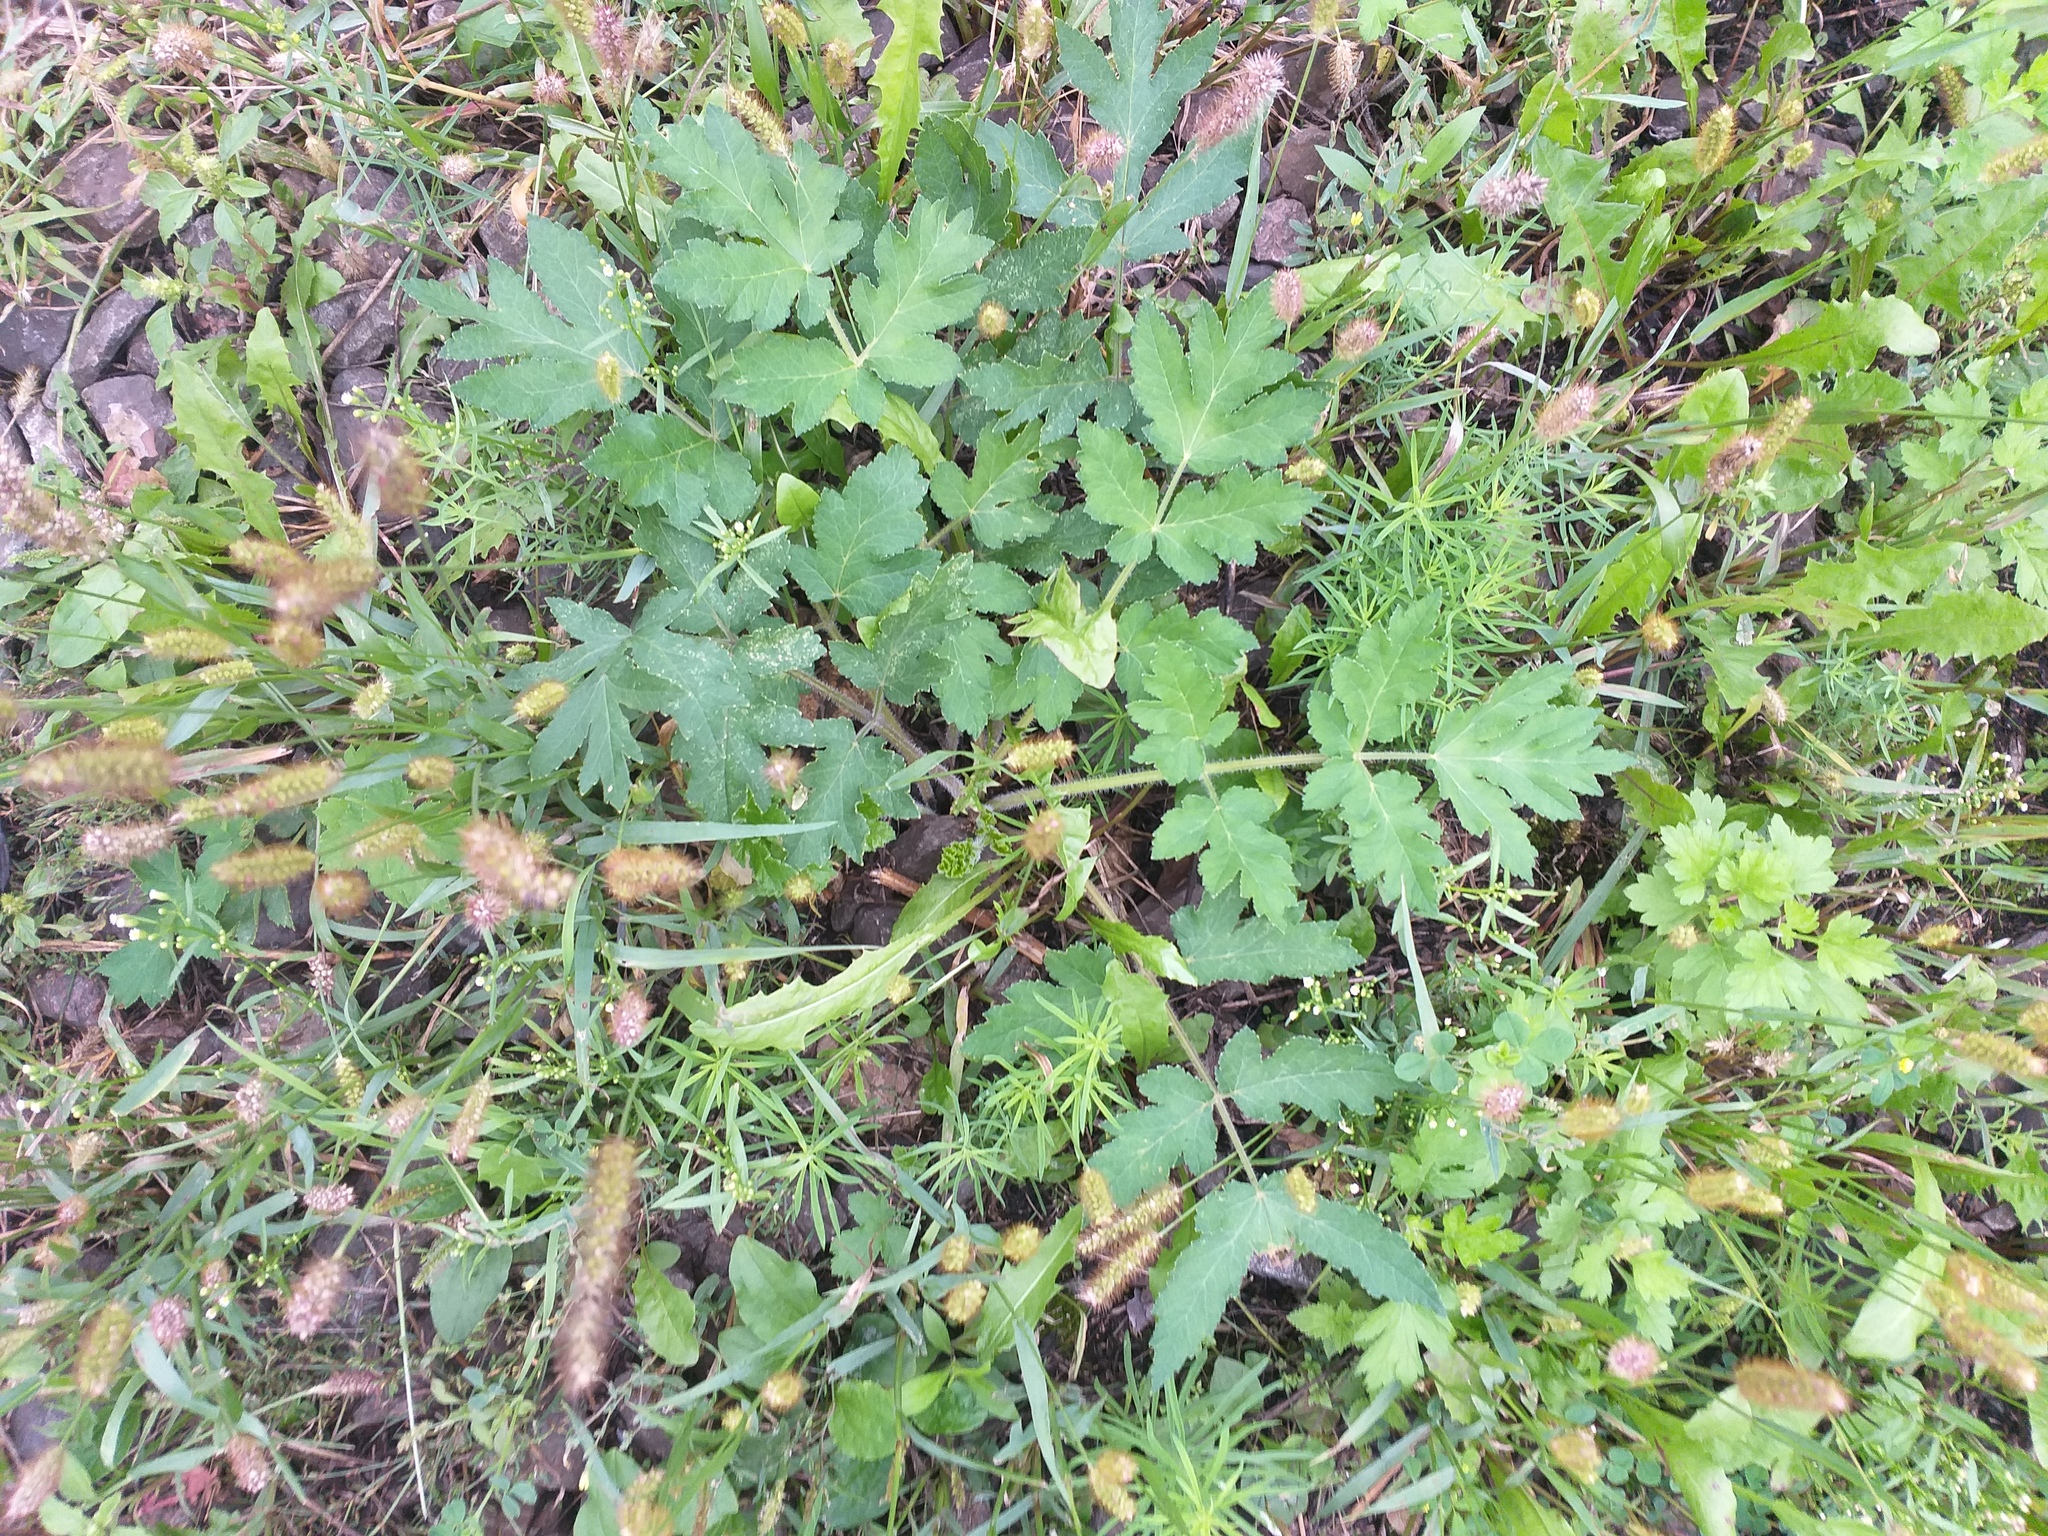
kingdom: Plantae
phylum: Tracheophyta
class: Liliopsida
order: Poales
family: Poaceae
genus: Setaria
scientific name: Setaria pumila
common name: Yellow bristle-grass
